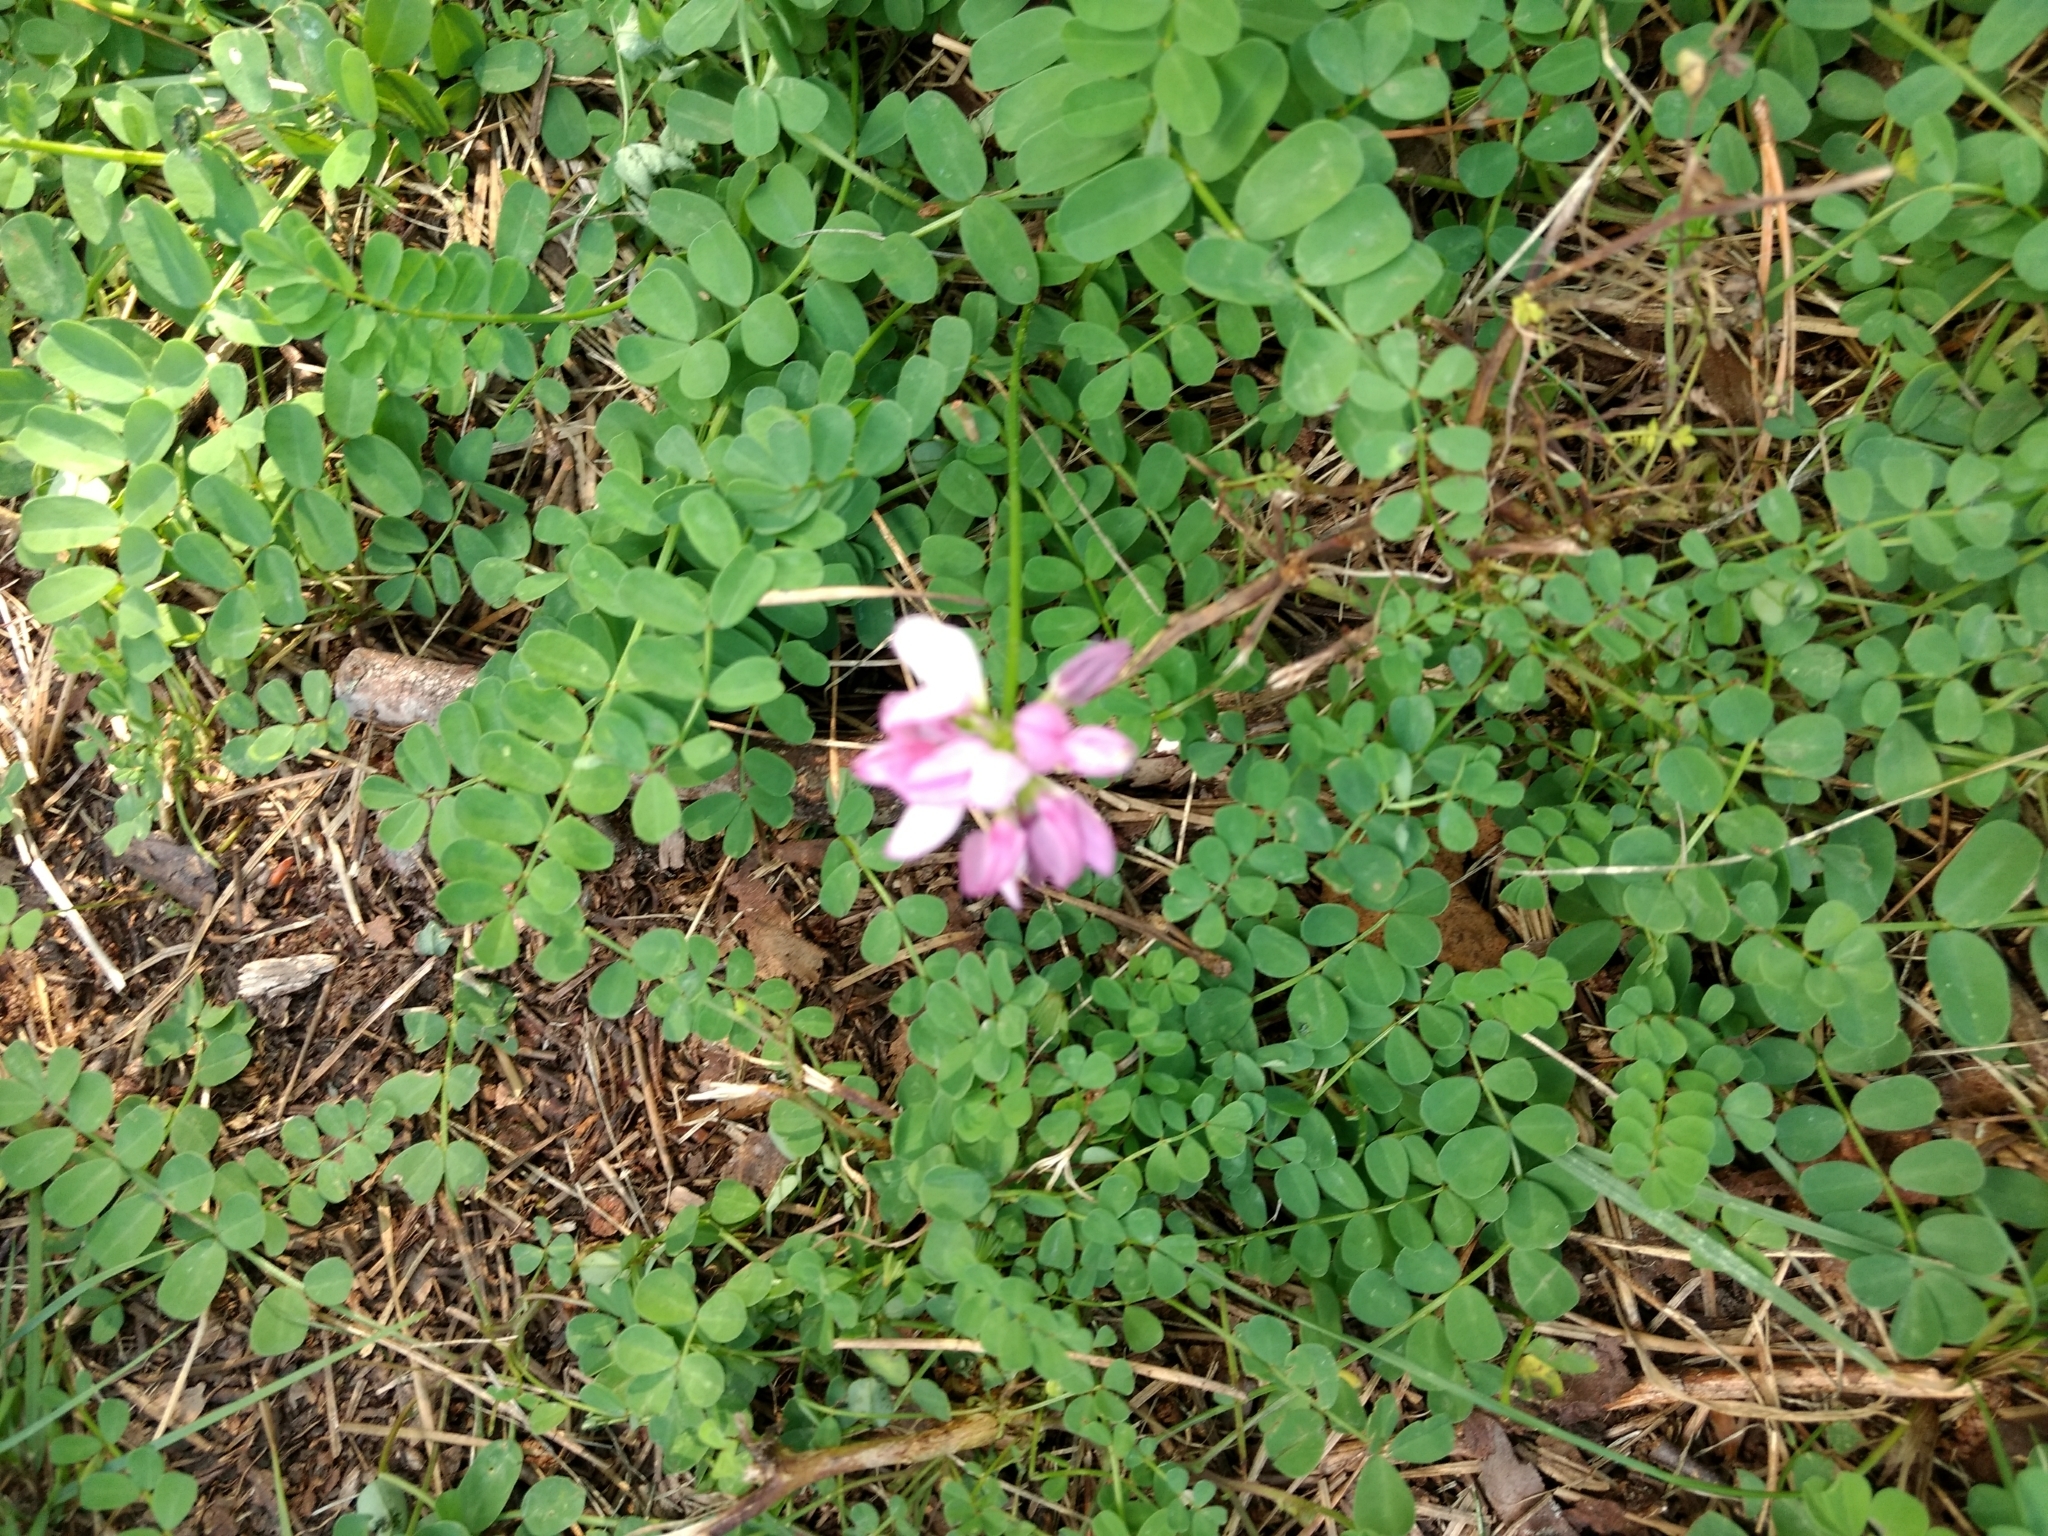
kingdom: Plantae
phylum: Tracheophyta
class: Magnoliopsida
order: Fabales
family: Fabaceae
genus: Coronilla
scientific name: Coronilla varia
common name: Crownvetch
